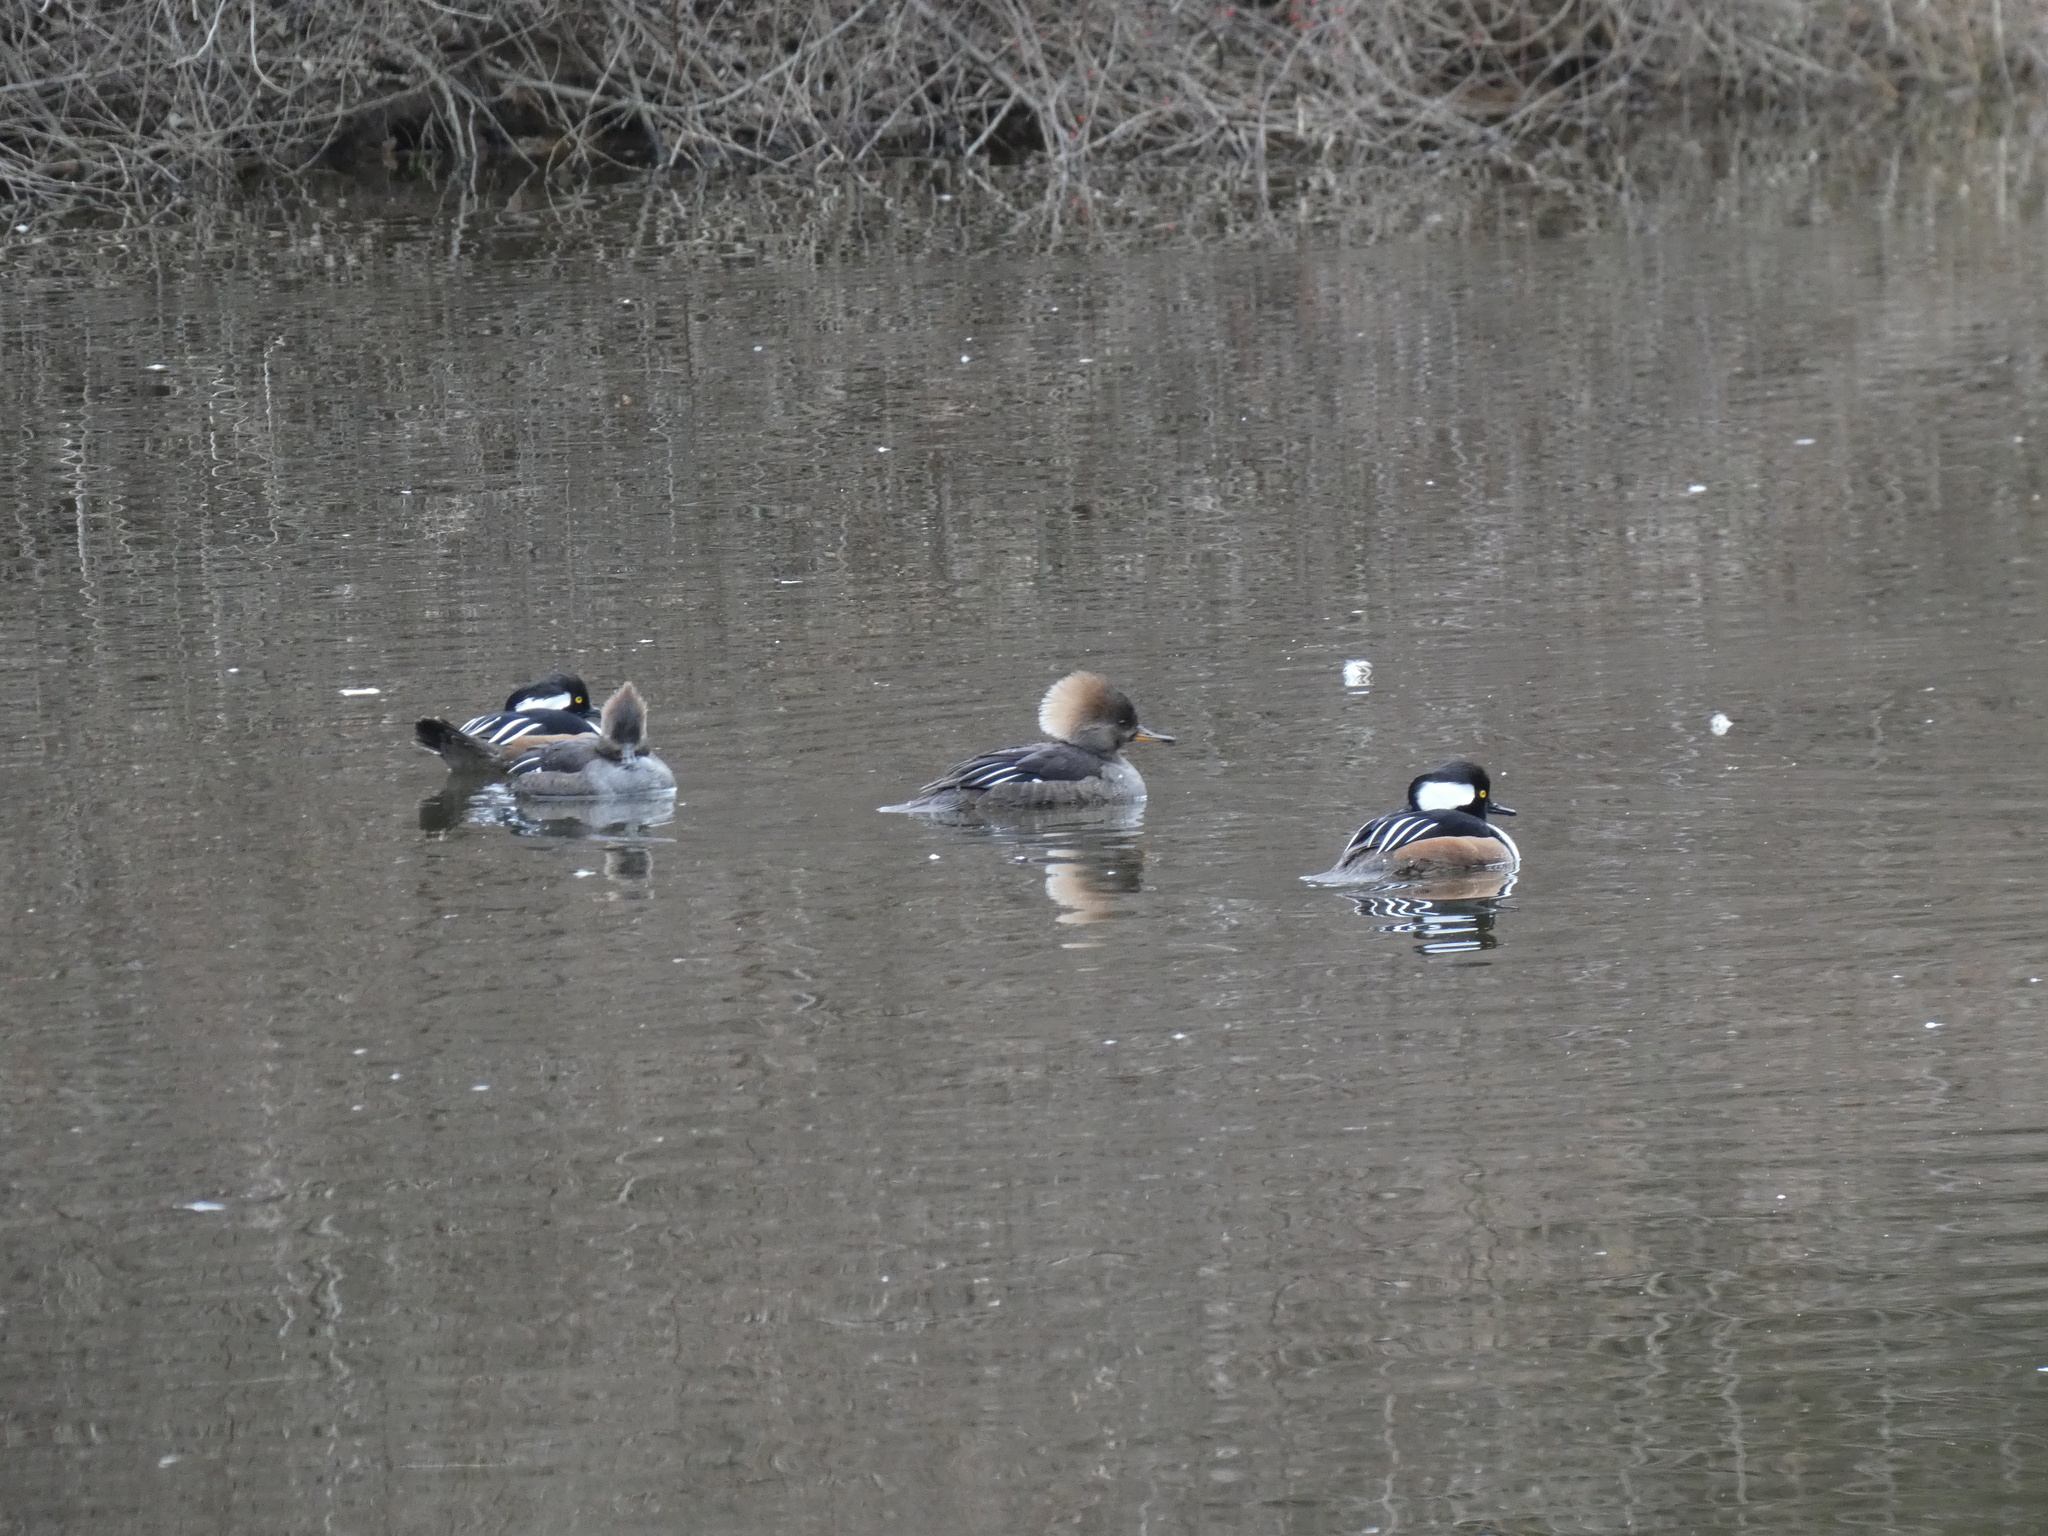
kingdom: Animalia
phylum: Chordata
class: Aves
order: Anseriformes
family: Anatidae
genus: Lophodytes
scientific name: Lophodytes cucullatus
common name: Hooded merganser
